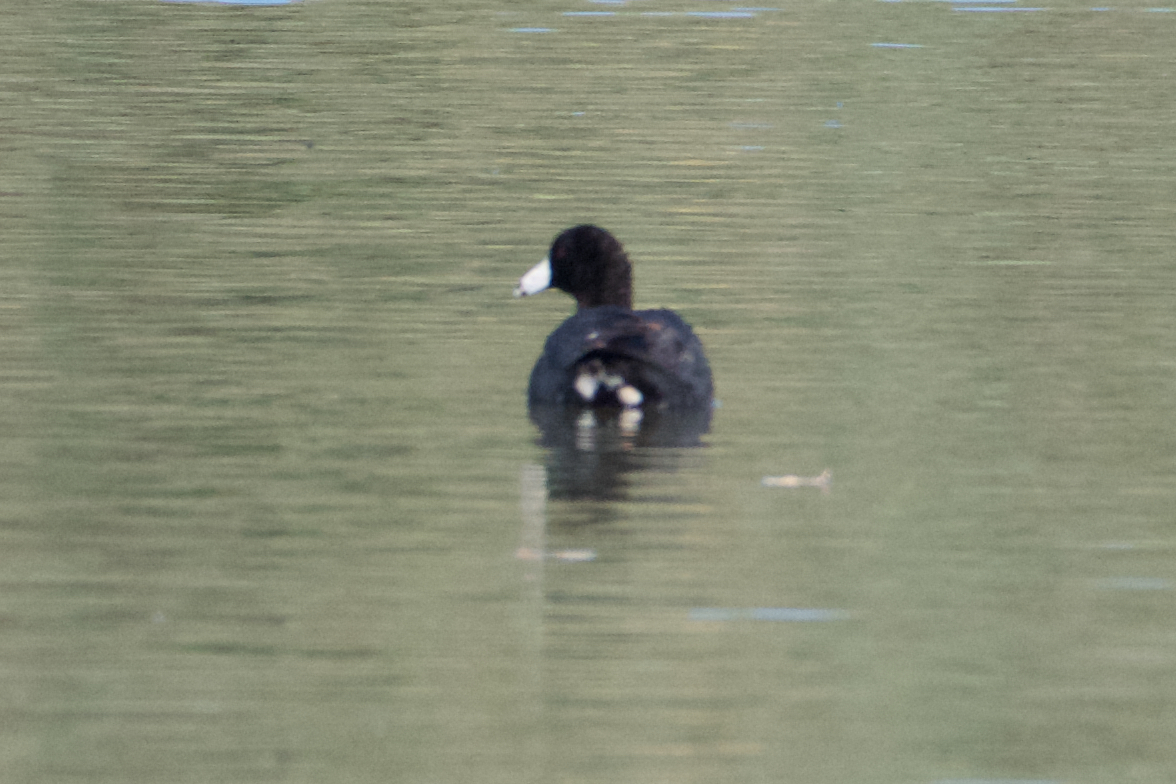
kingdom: Animalia
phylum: Chordata
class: Aves
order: Gruiformes
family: Rallidae
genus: Fulica
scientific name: Fulica americana
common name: American coot
